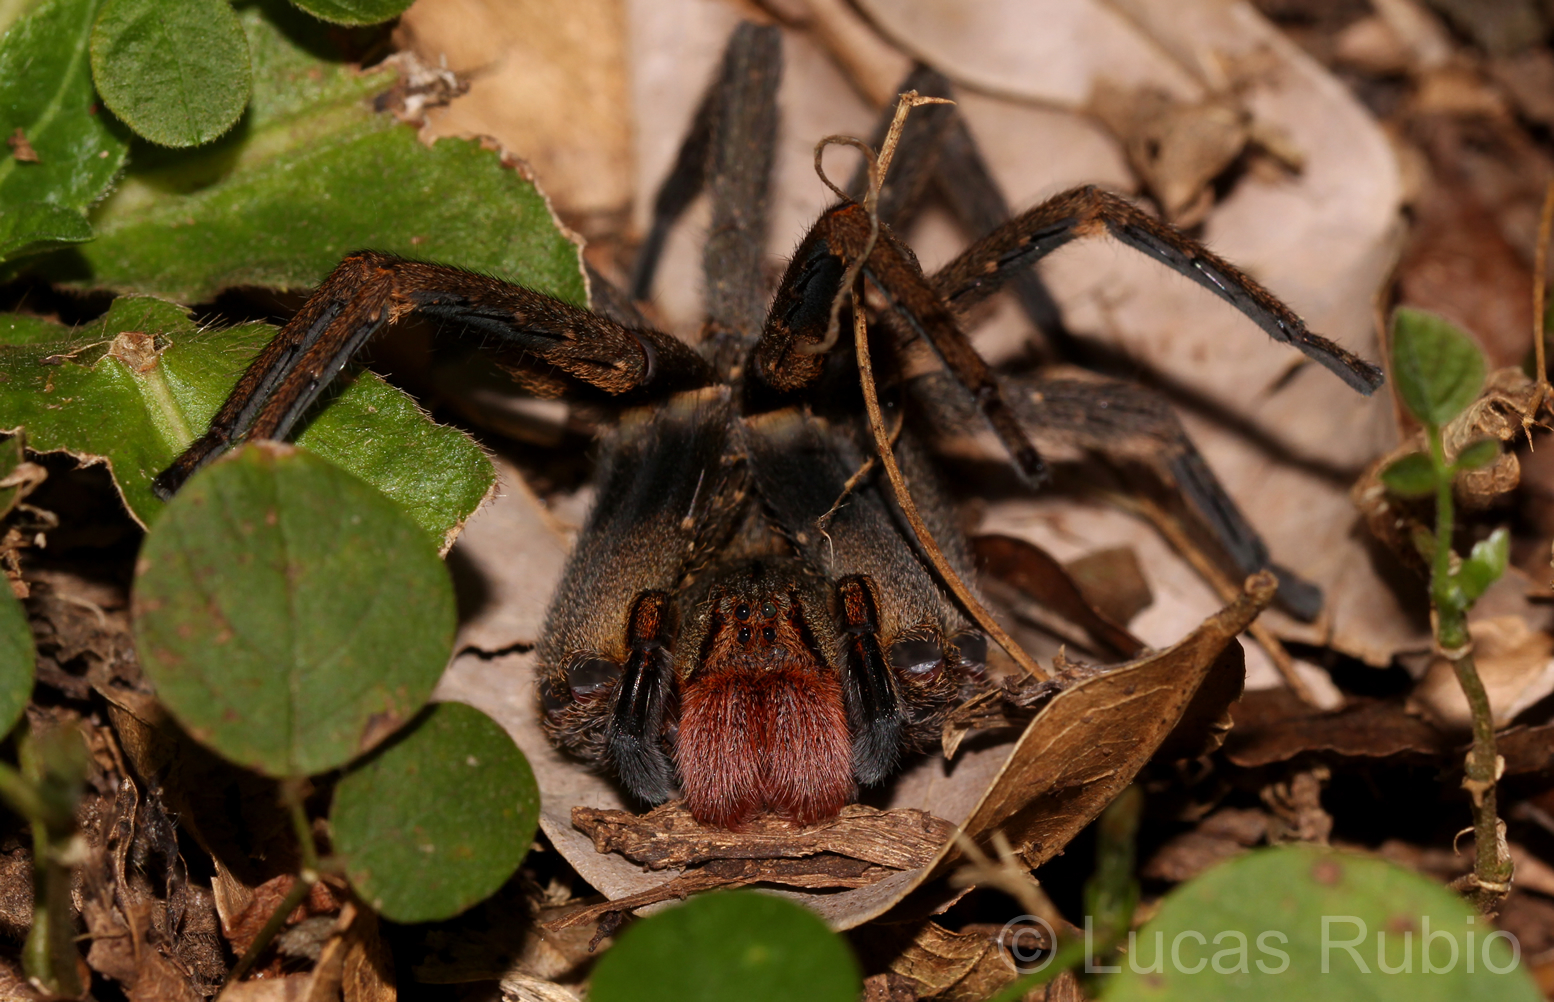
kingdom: Animalia
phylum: Arthropoda
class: Arachnida
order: Araneae
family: Ctenidae
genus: Phoneutria
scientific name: Phoneutria nigriventer
